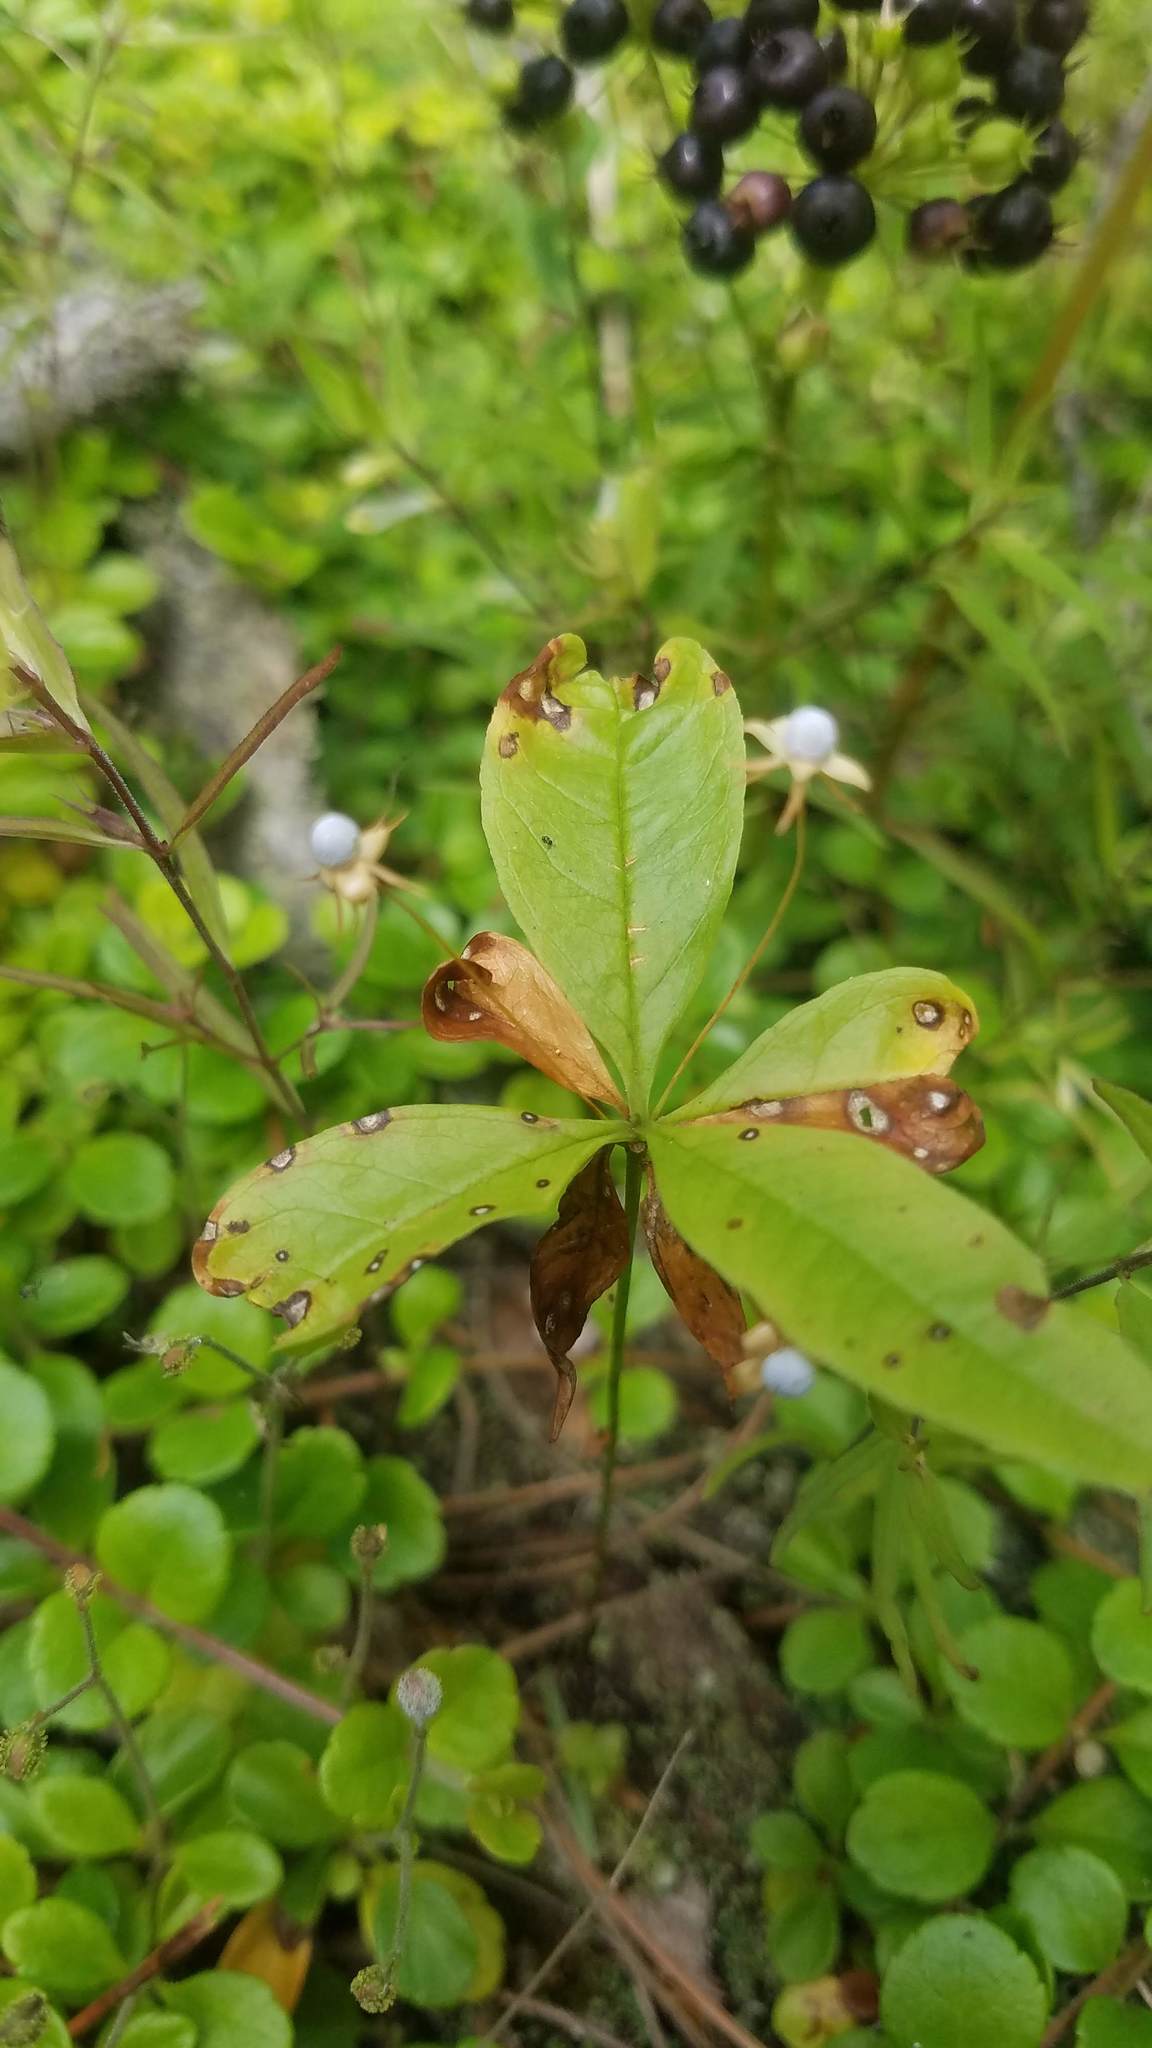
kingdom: Plantae
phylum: Tracheophyta
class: Magnoliopsida
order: Ericales
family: Primulaceae
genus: Lysimachia
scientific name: Lysimachia borealis
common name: American starflower
